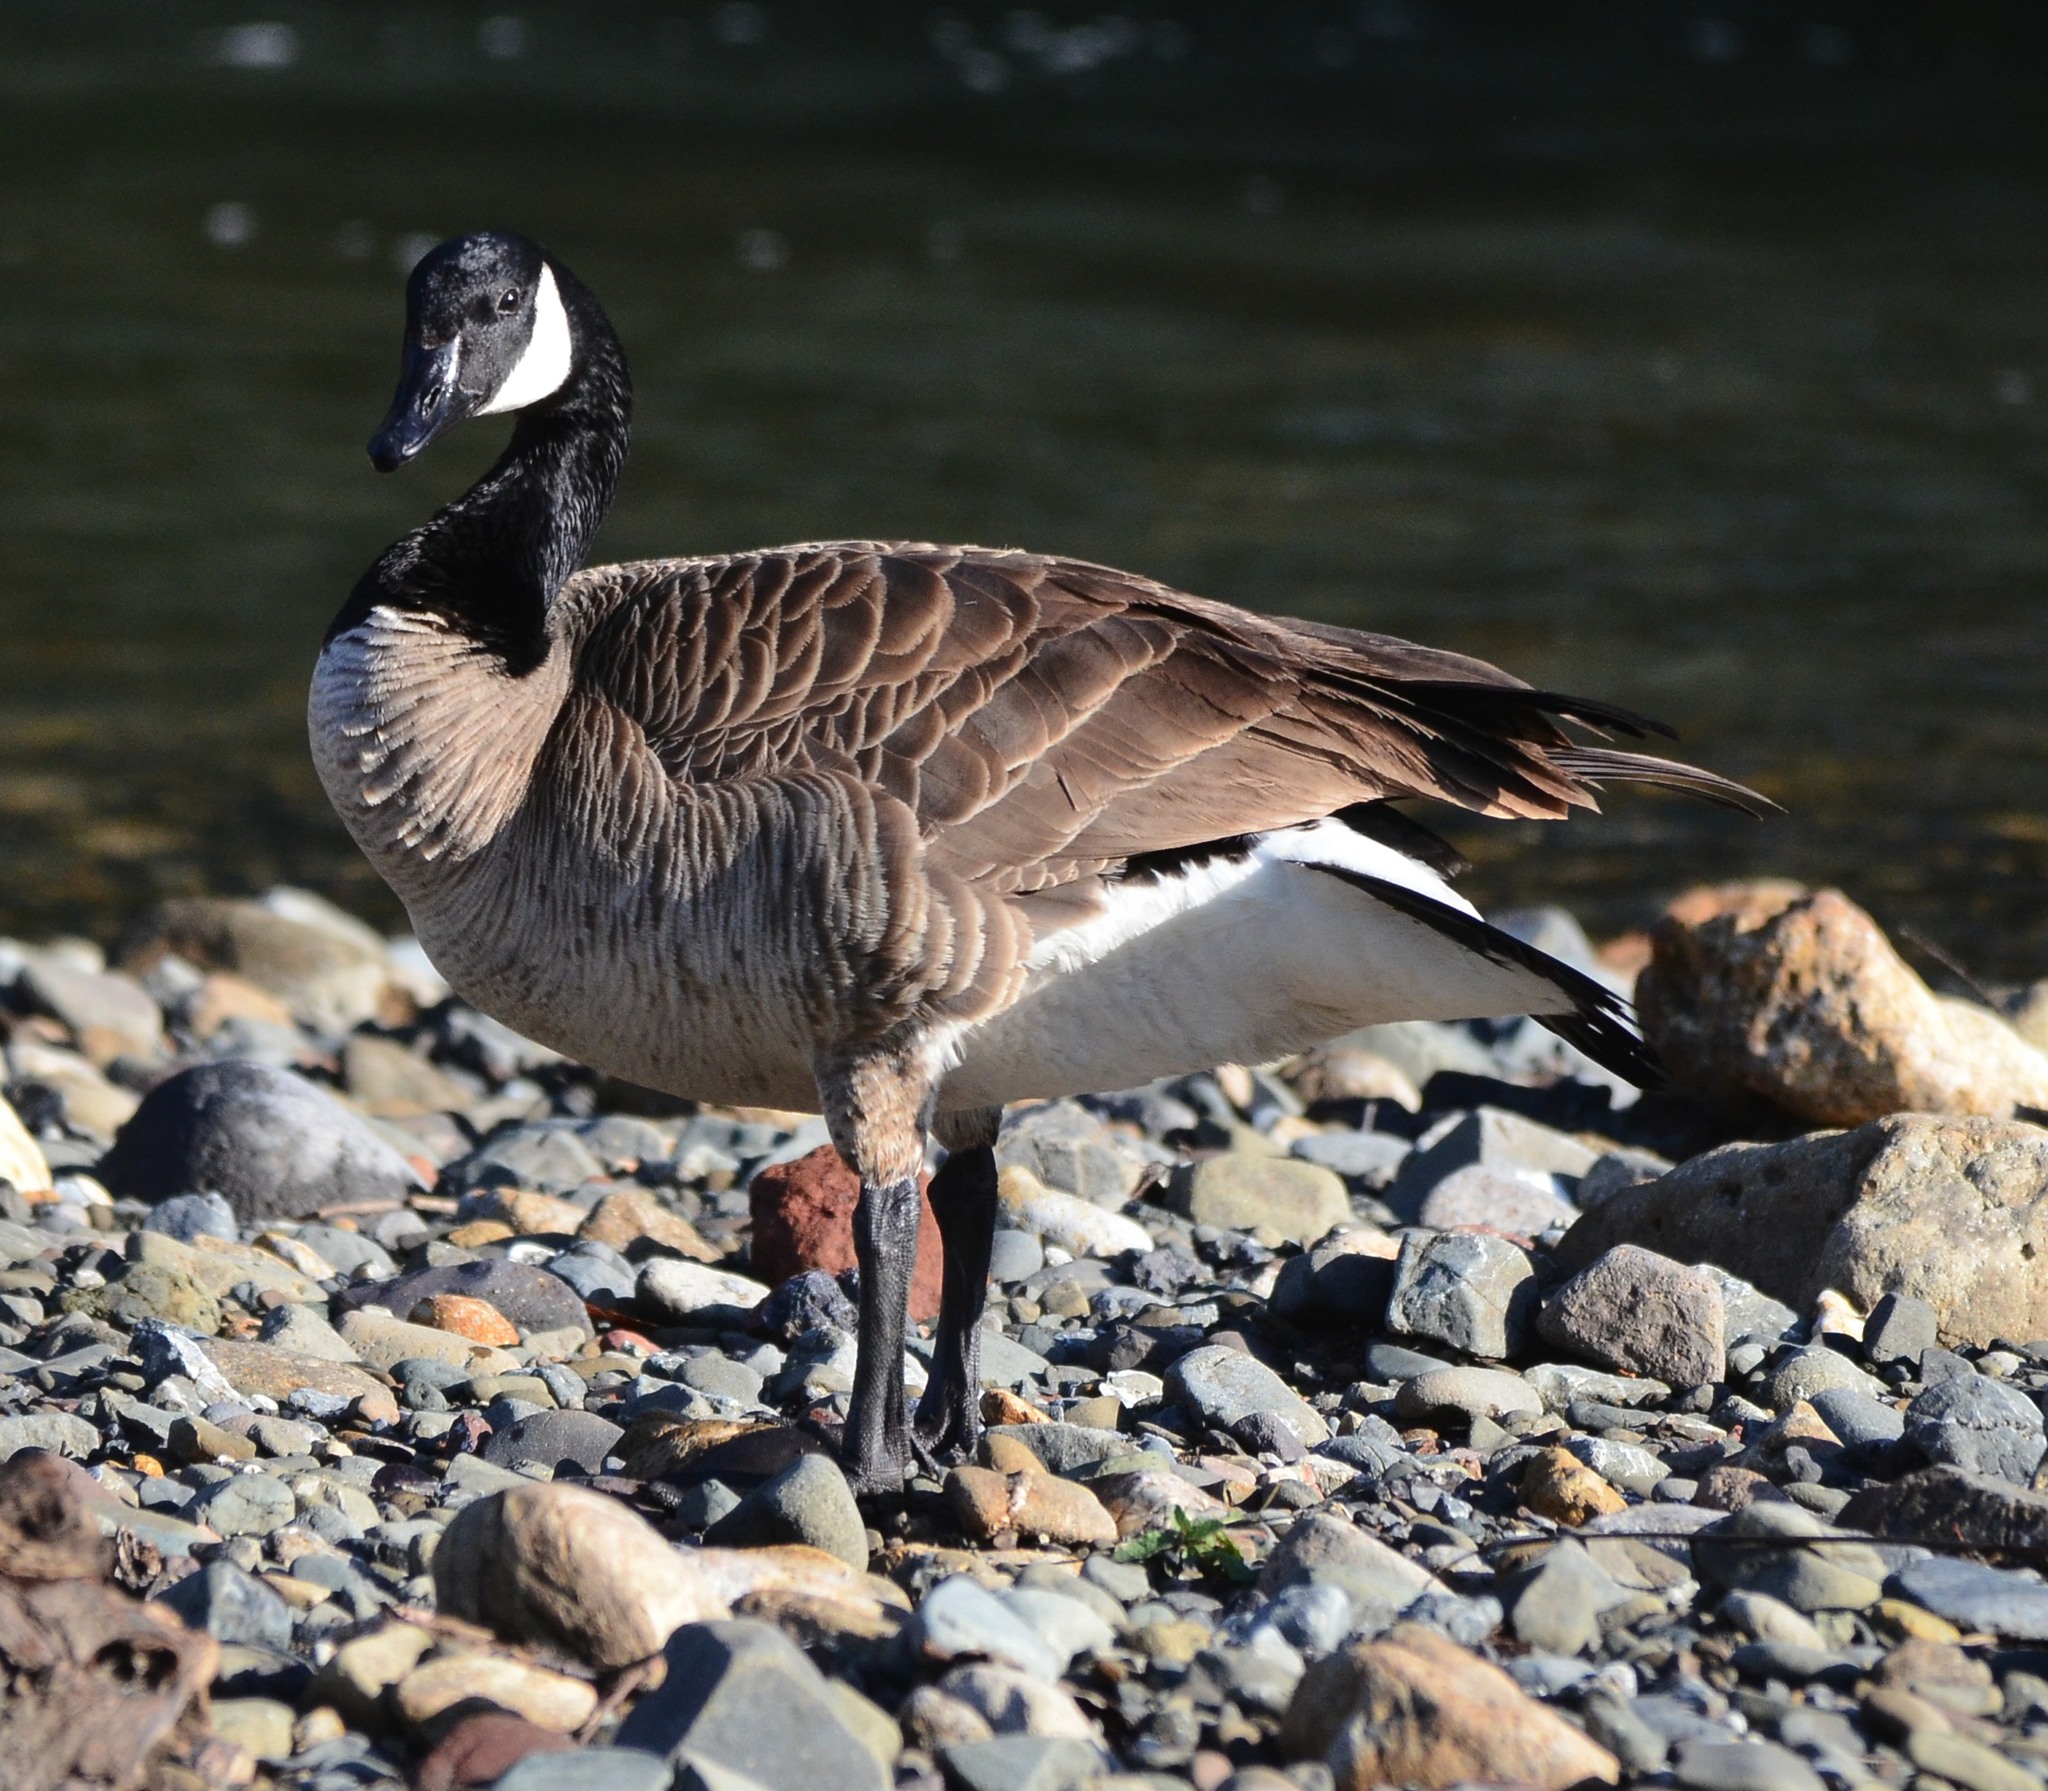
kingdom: Animalia
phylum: Chordata
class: Aves
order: Anseriformes
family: Anatidae
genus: Branta
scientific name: Branta canadensis
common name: Canada goose
